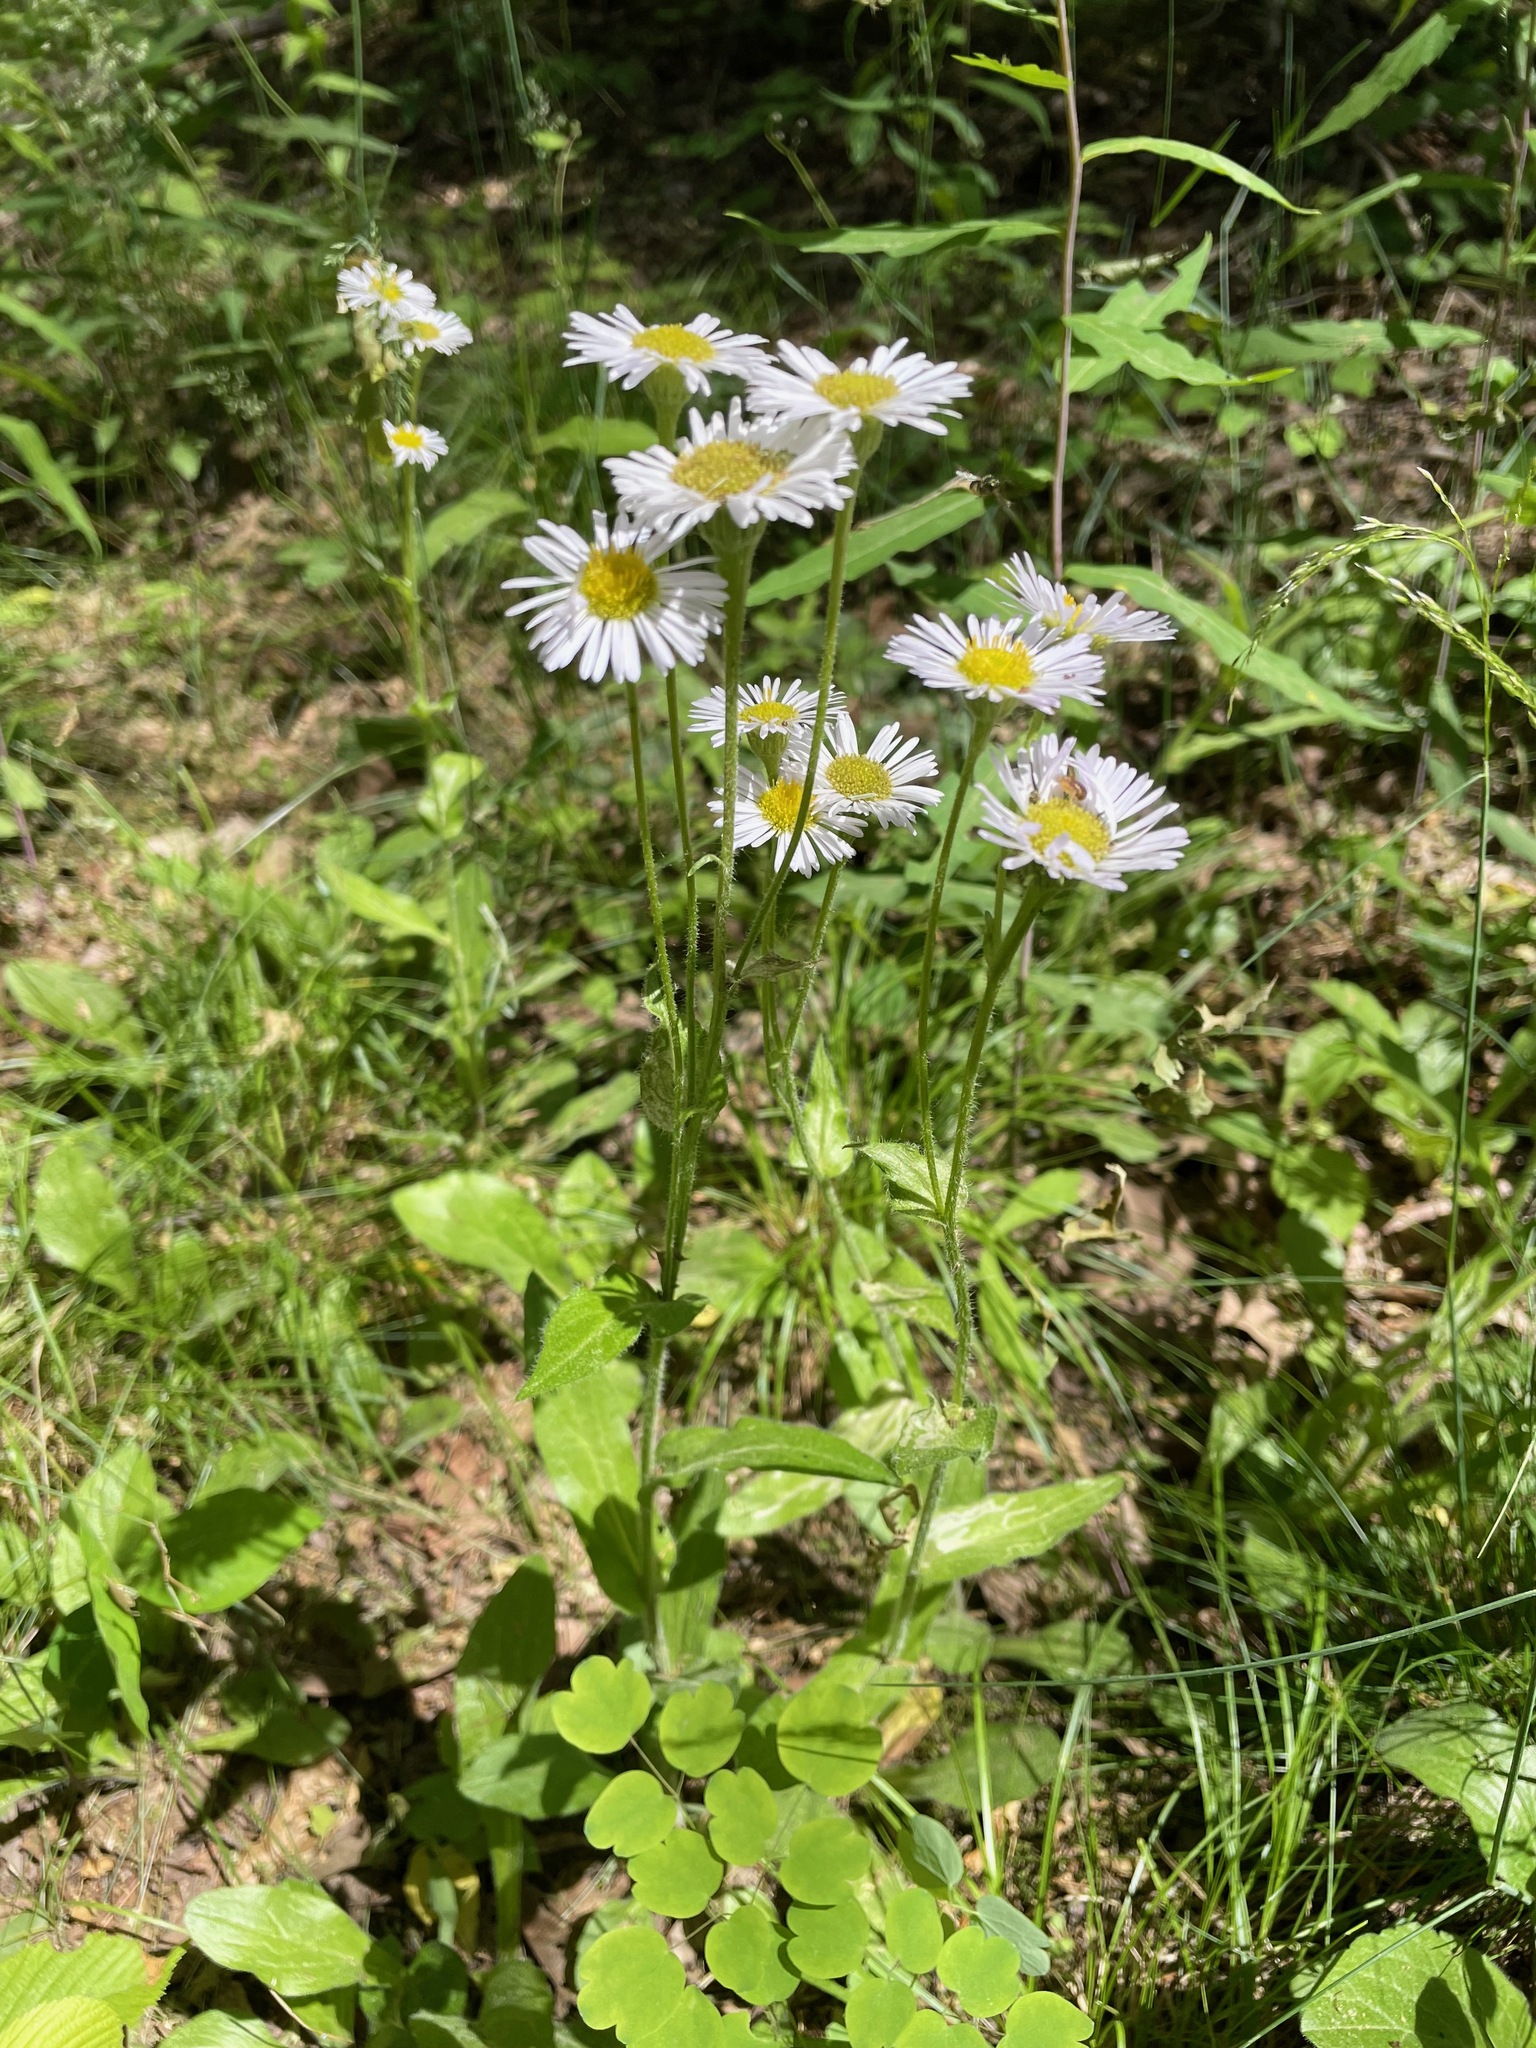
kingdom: Plantae
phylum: Tracheophyta
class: Magnoliopsida
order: Asterales
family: Asteraceae
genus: Erigeron
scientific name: Erigeron pulchellus
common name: Hairy fleabane
